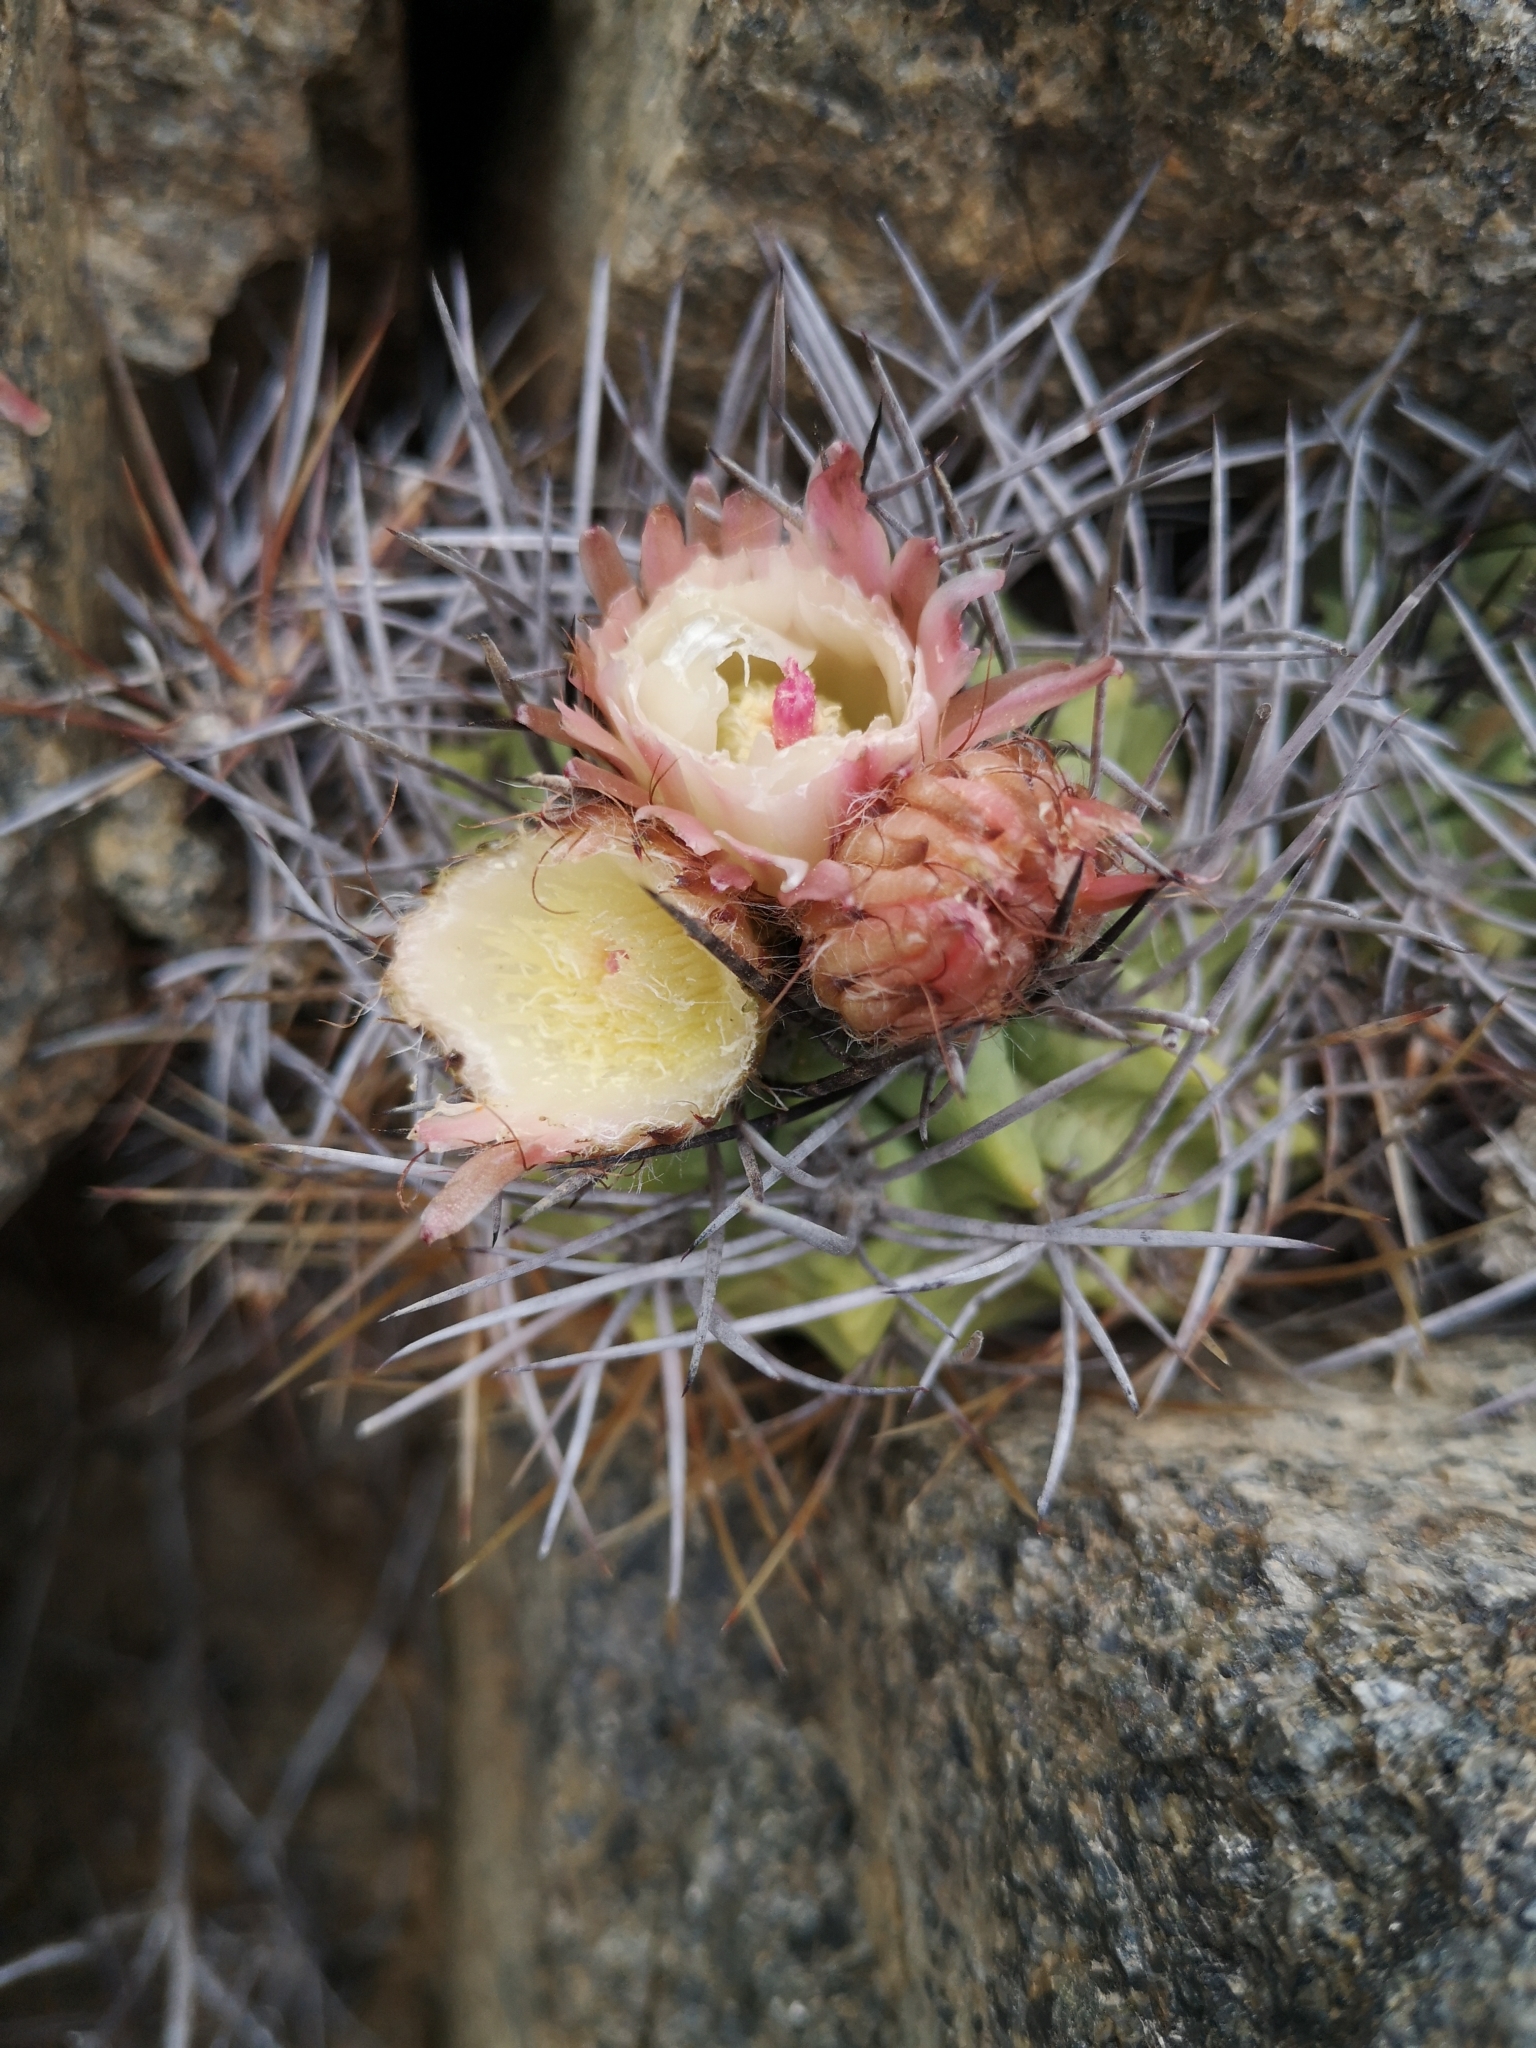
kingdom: Plantae
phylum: Tracheophyta
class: Magnoliopsida
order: Caryophyllales
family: Cactaceae
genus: Eriosyce
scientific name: Eriosyce paucicostata
